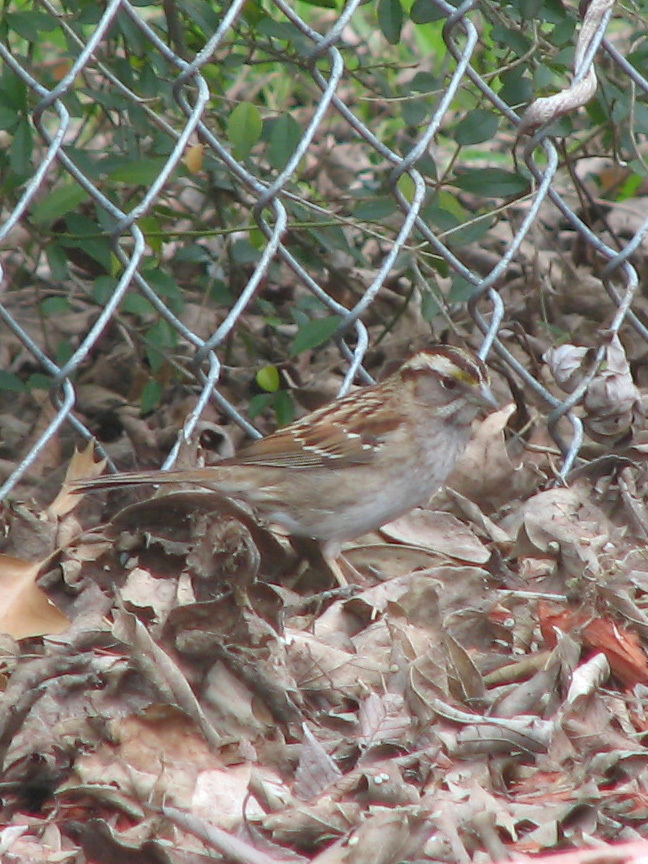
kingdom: Animalia
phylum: Chordata
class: Aves
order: Passeriformes
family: Passerellidae
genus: Zonotrichia
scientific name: Zonotrichia albicollis
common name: White-throated sparrow
